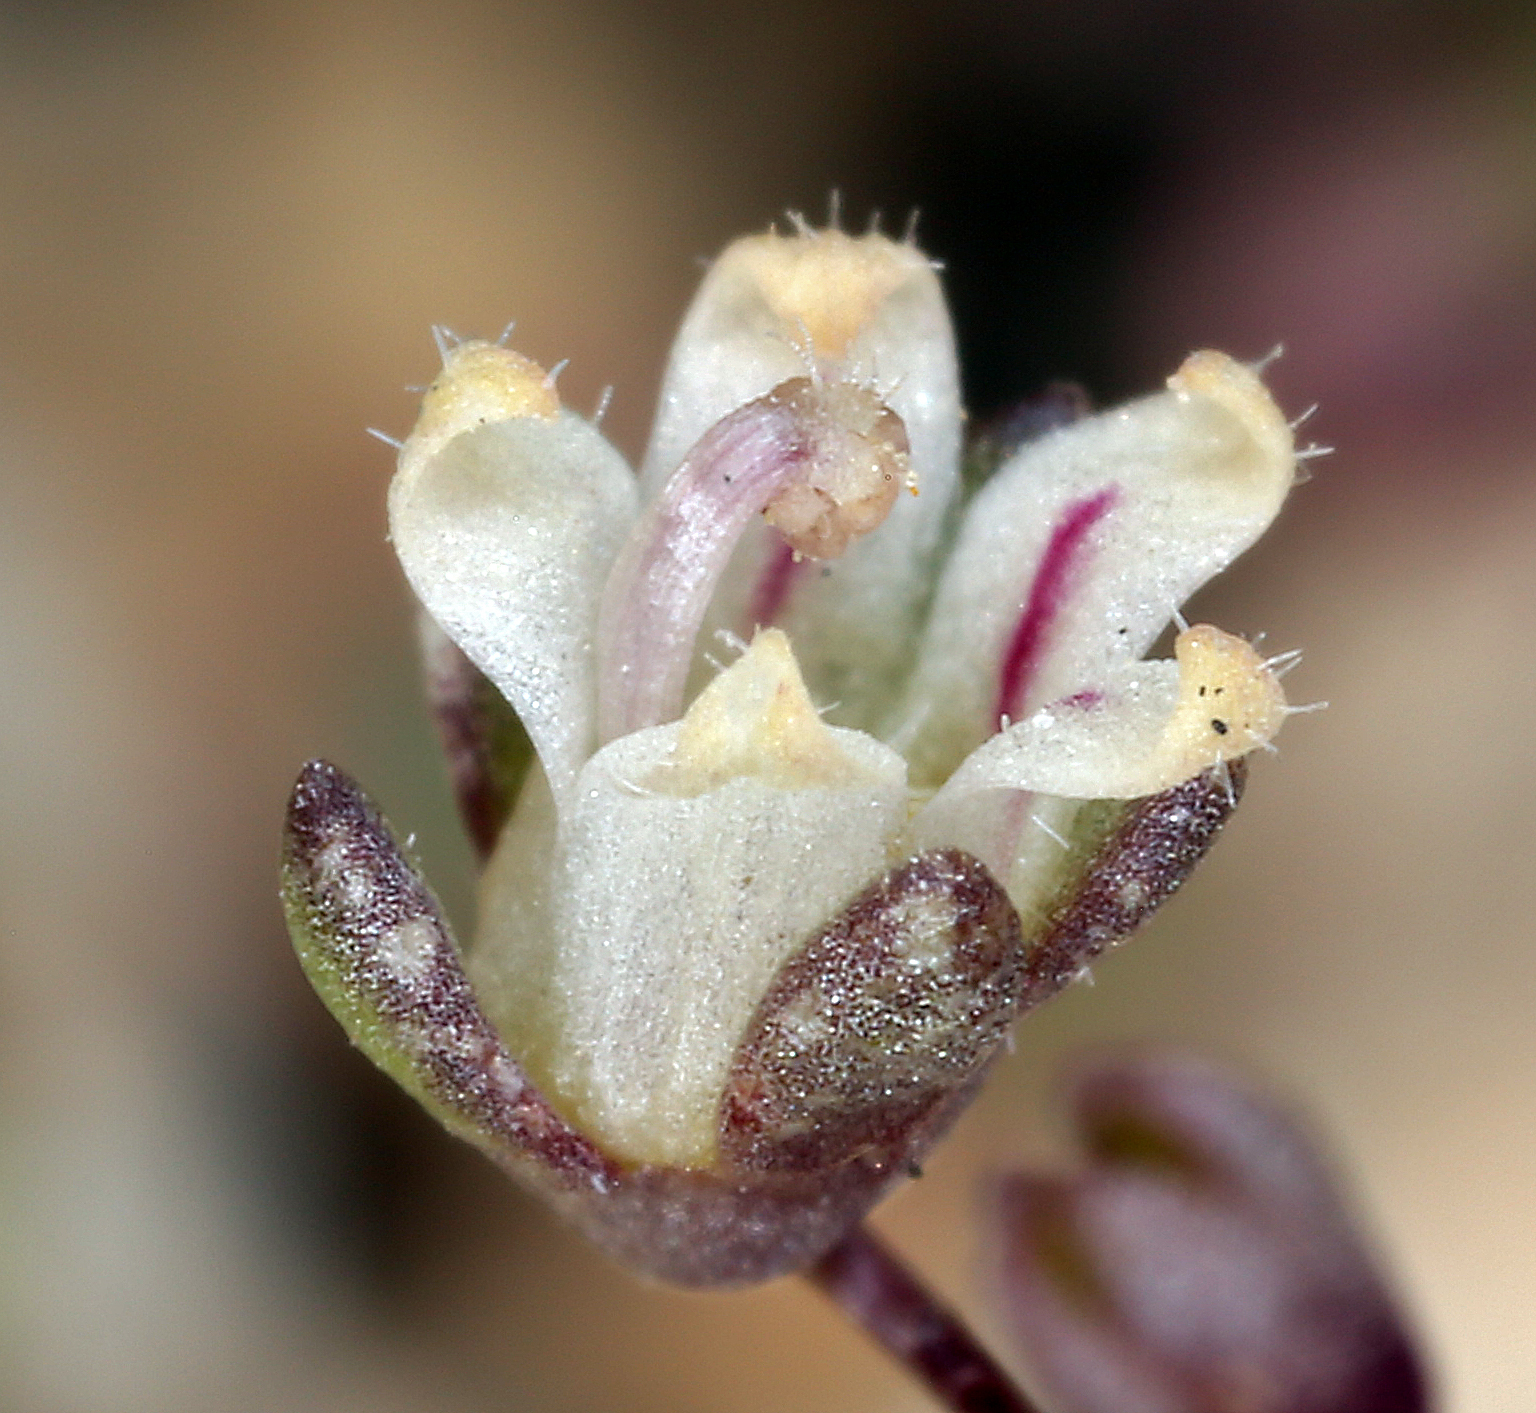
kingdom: Plantae
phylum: Tracheophyta
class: Magnoliopsida
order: Asterales
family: Campanulaceae
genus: Nemacladus
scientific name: Nemacladus inyoensis
